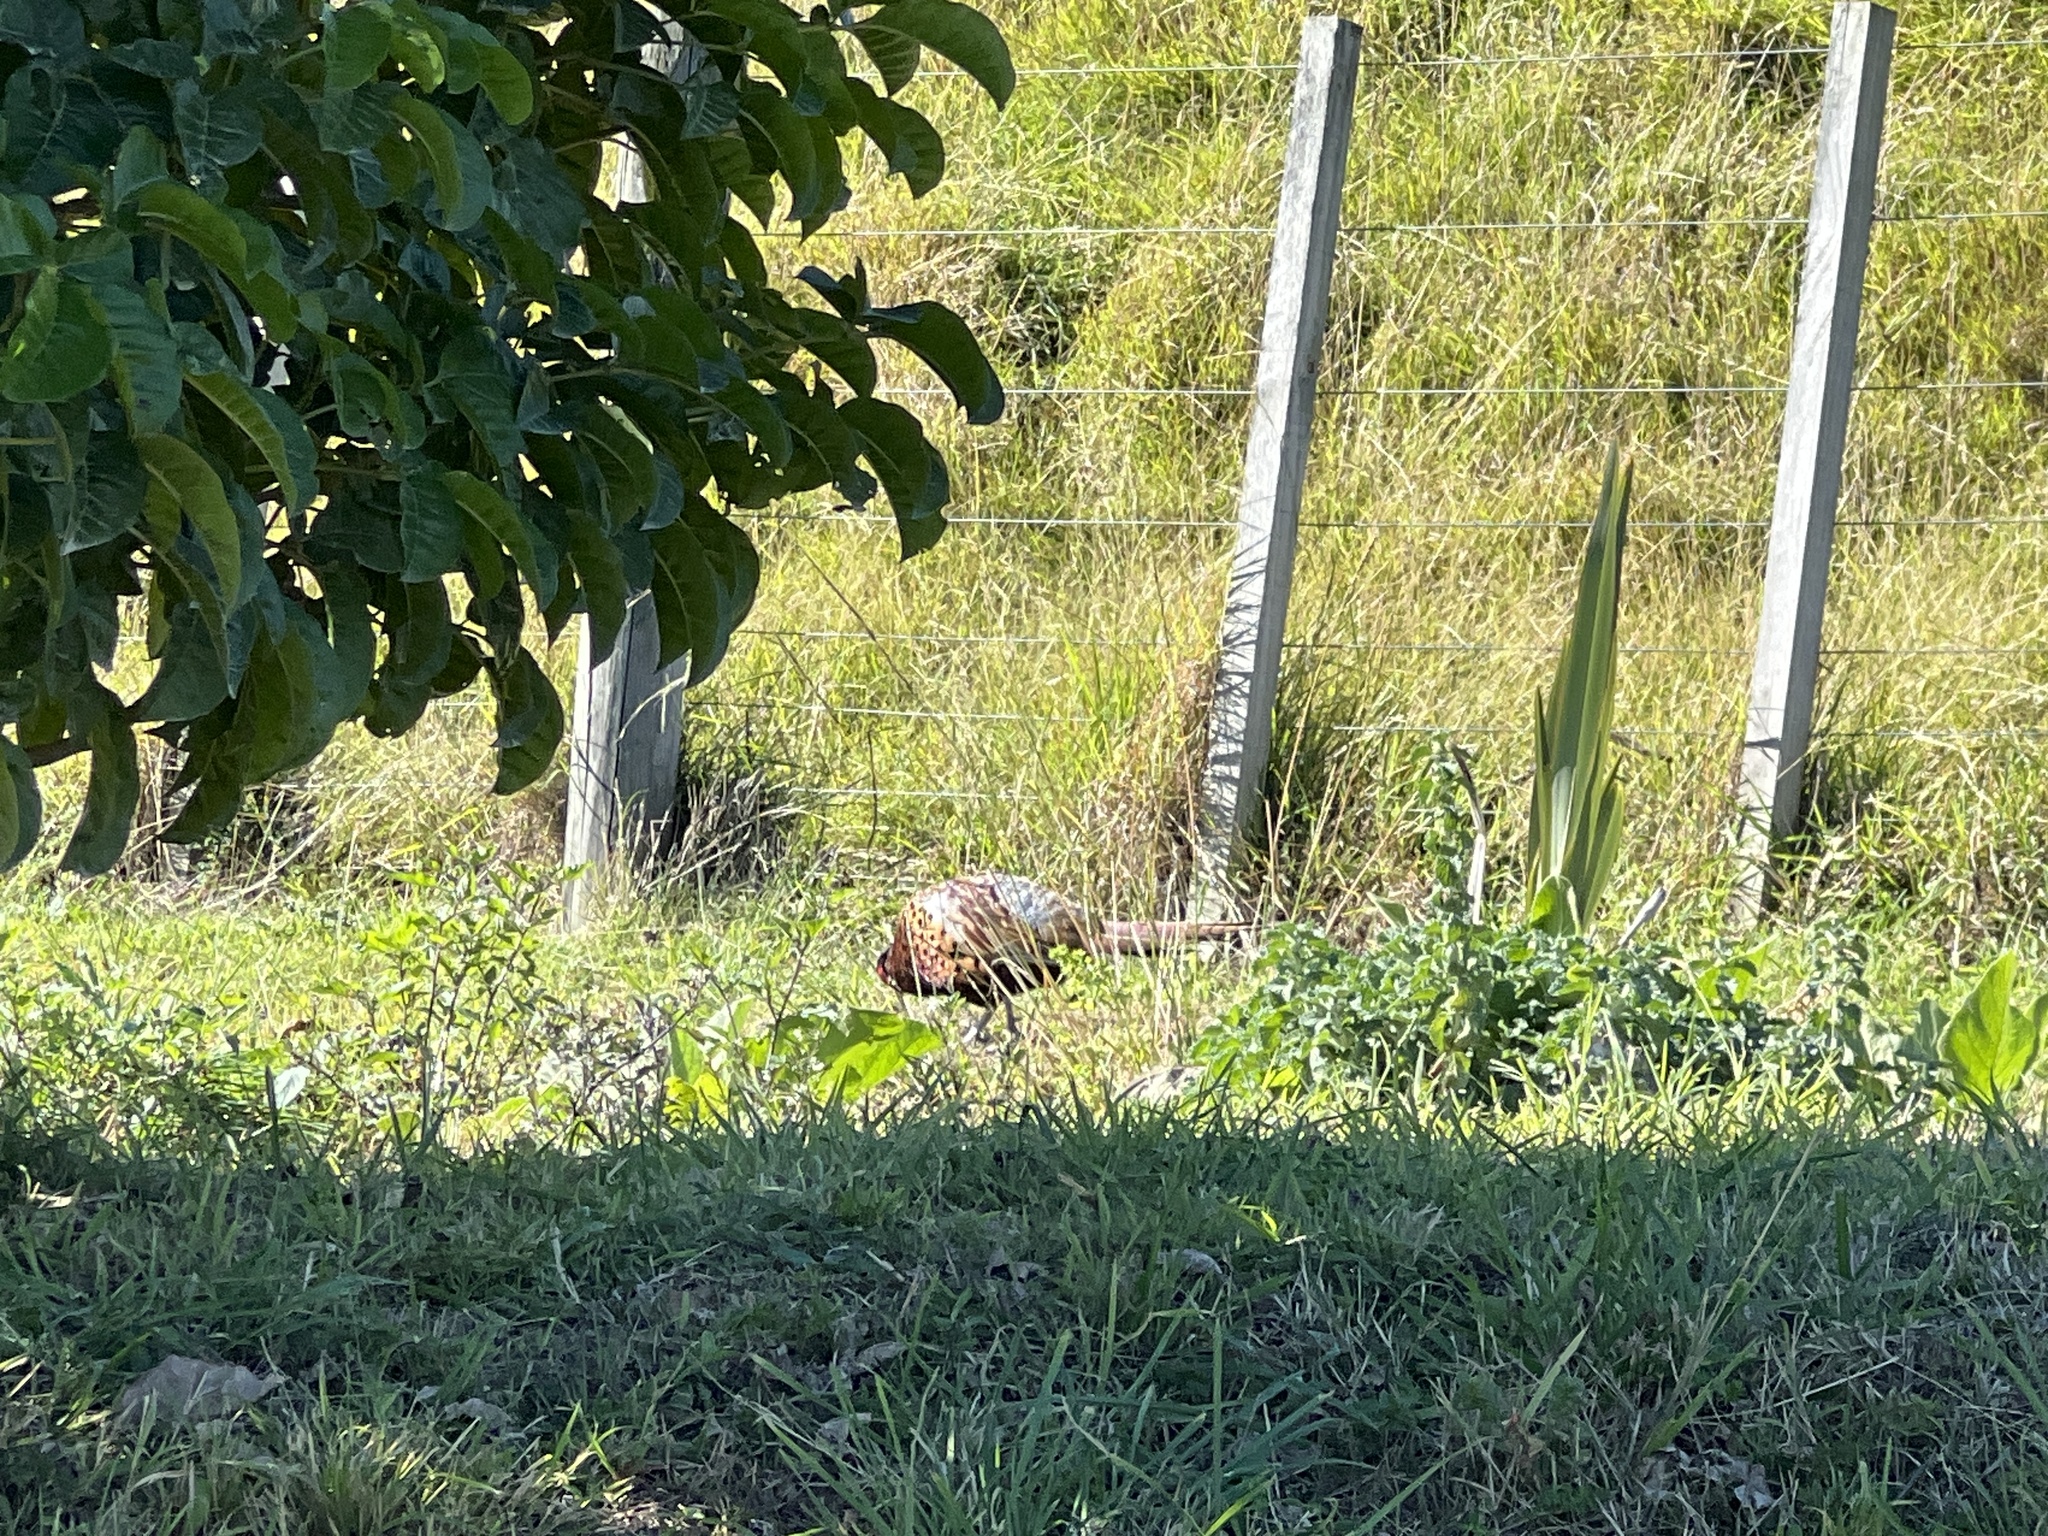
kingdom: Animalia
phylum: Chordata
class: Aves
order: Galliformes
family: Phasianidae
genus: Phasianus
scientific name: Phasianus colchicus
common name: Common pheasant
